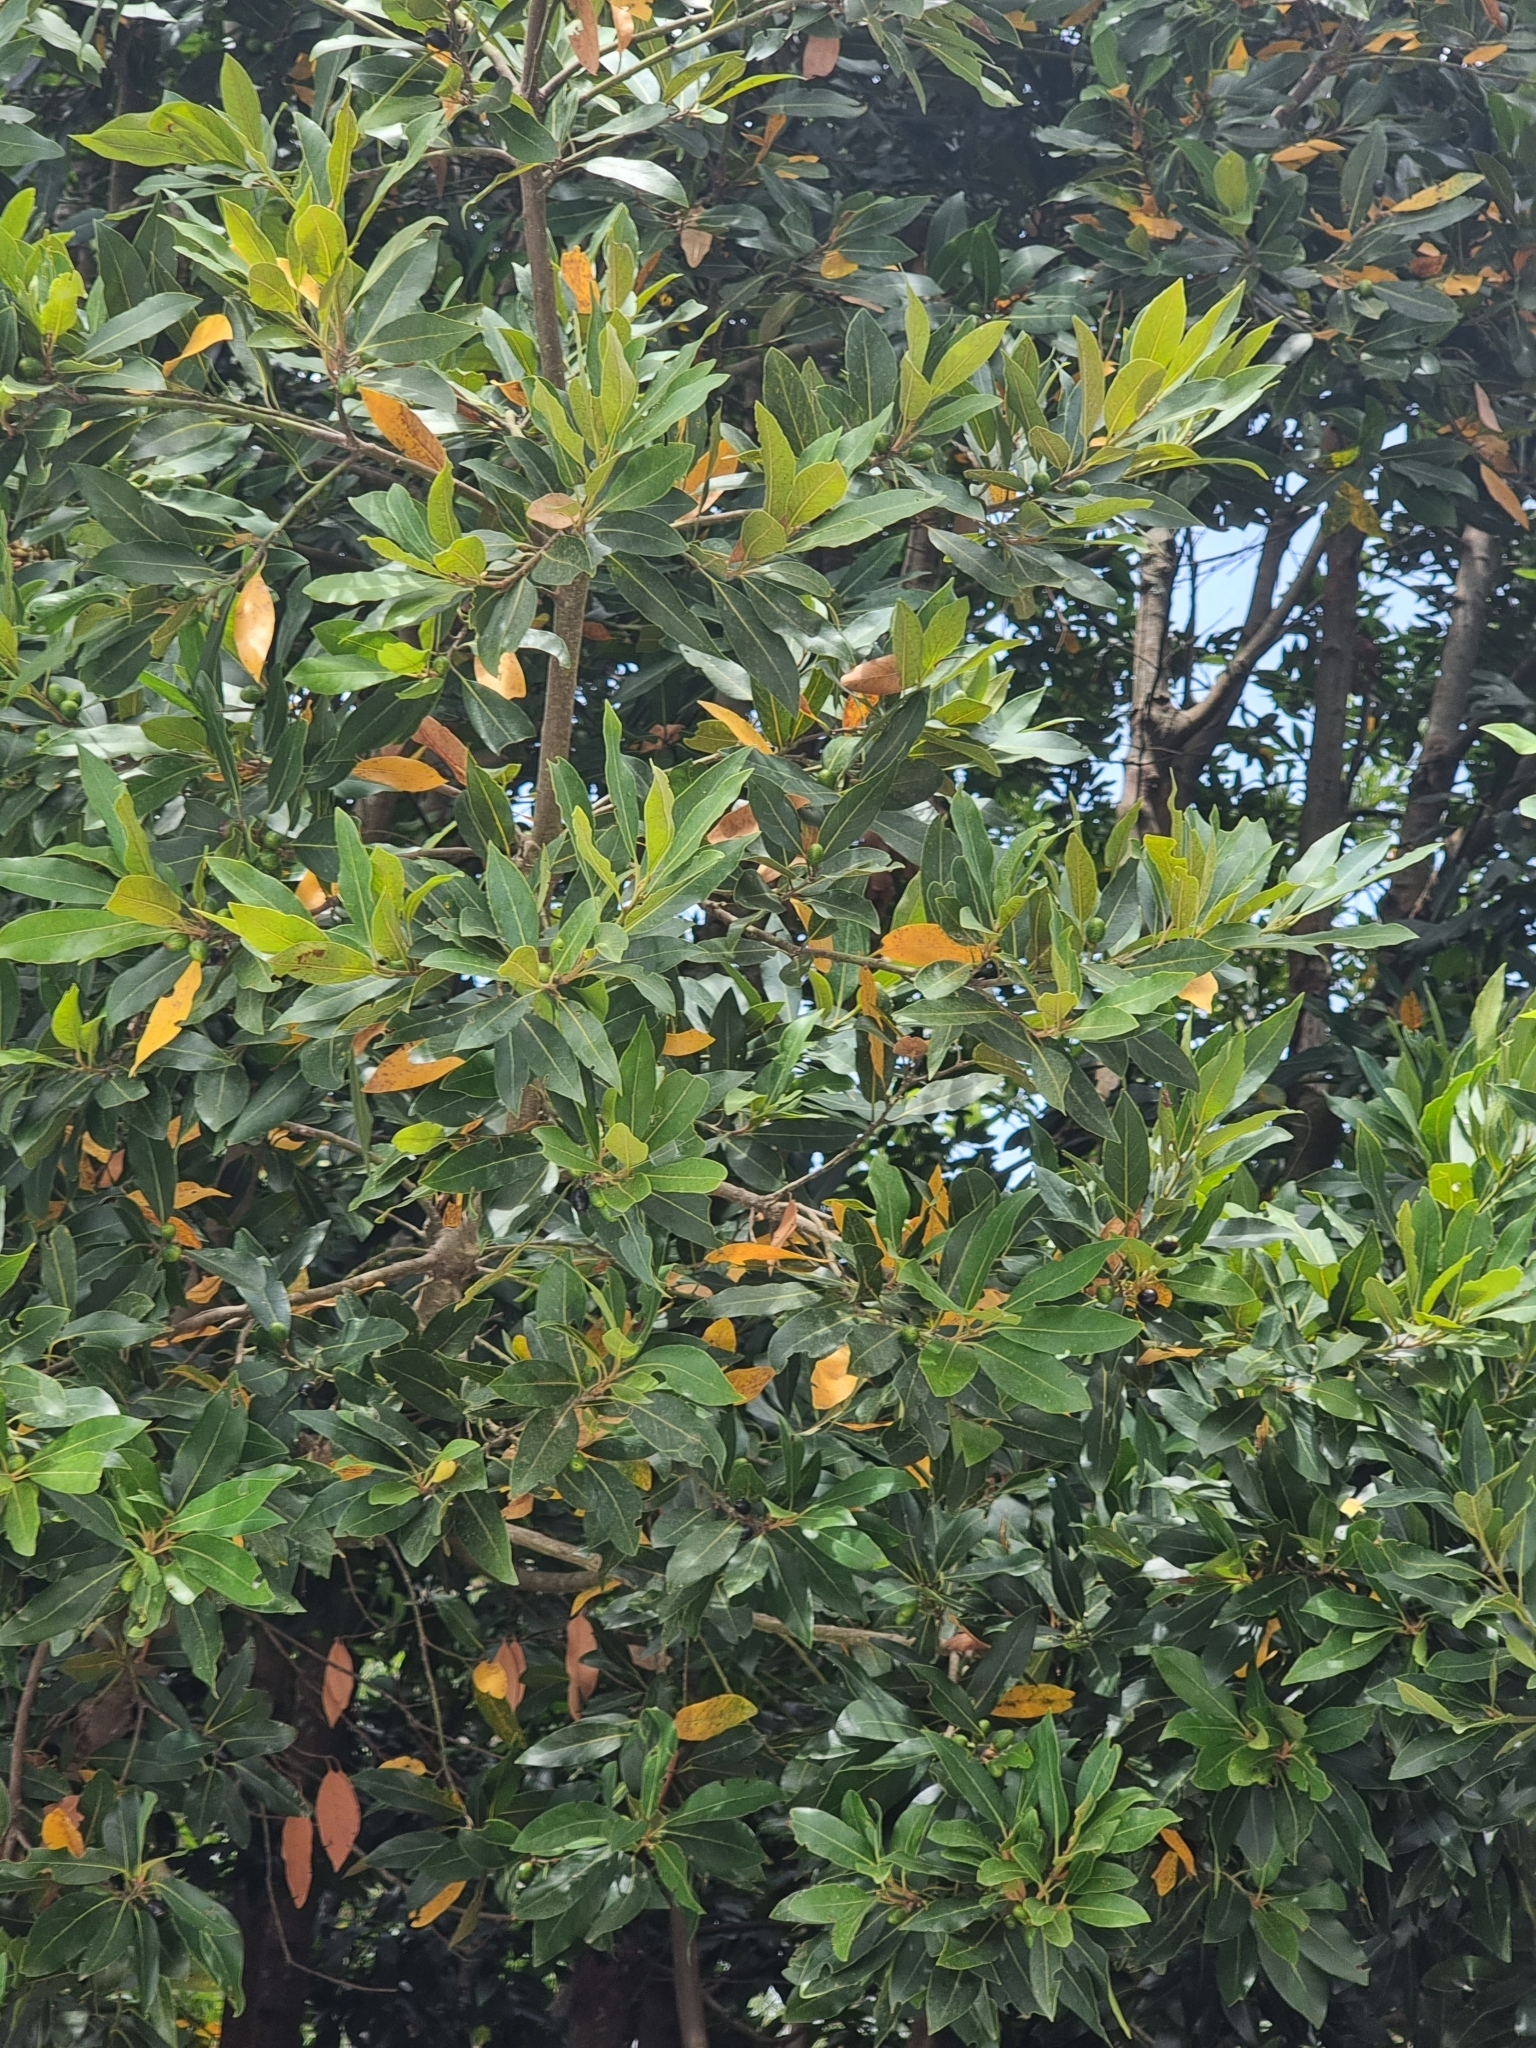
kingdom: Plantae
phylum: Tracheophyta
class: Magnoliopsida
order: Laurales
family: Lauraceae
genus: Laurus
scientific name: Laurus novocanariensis
